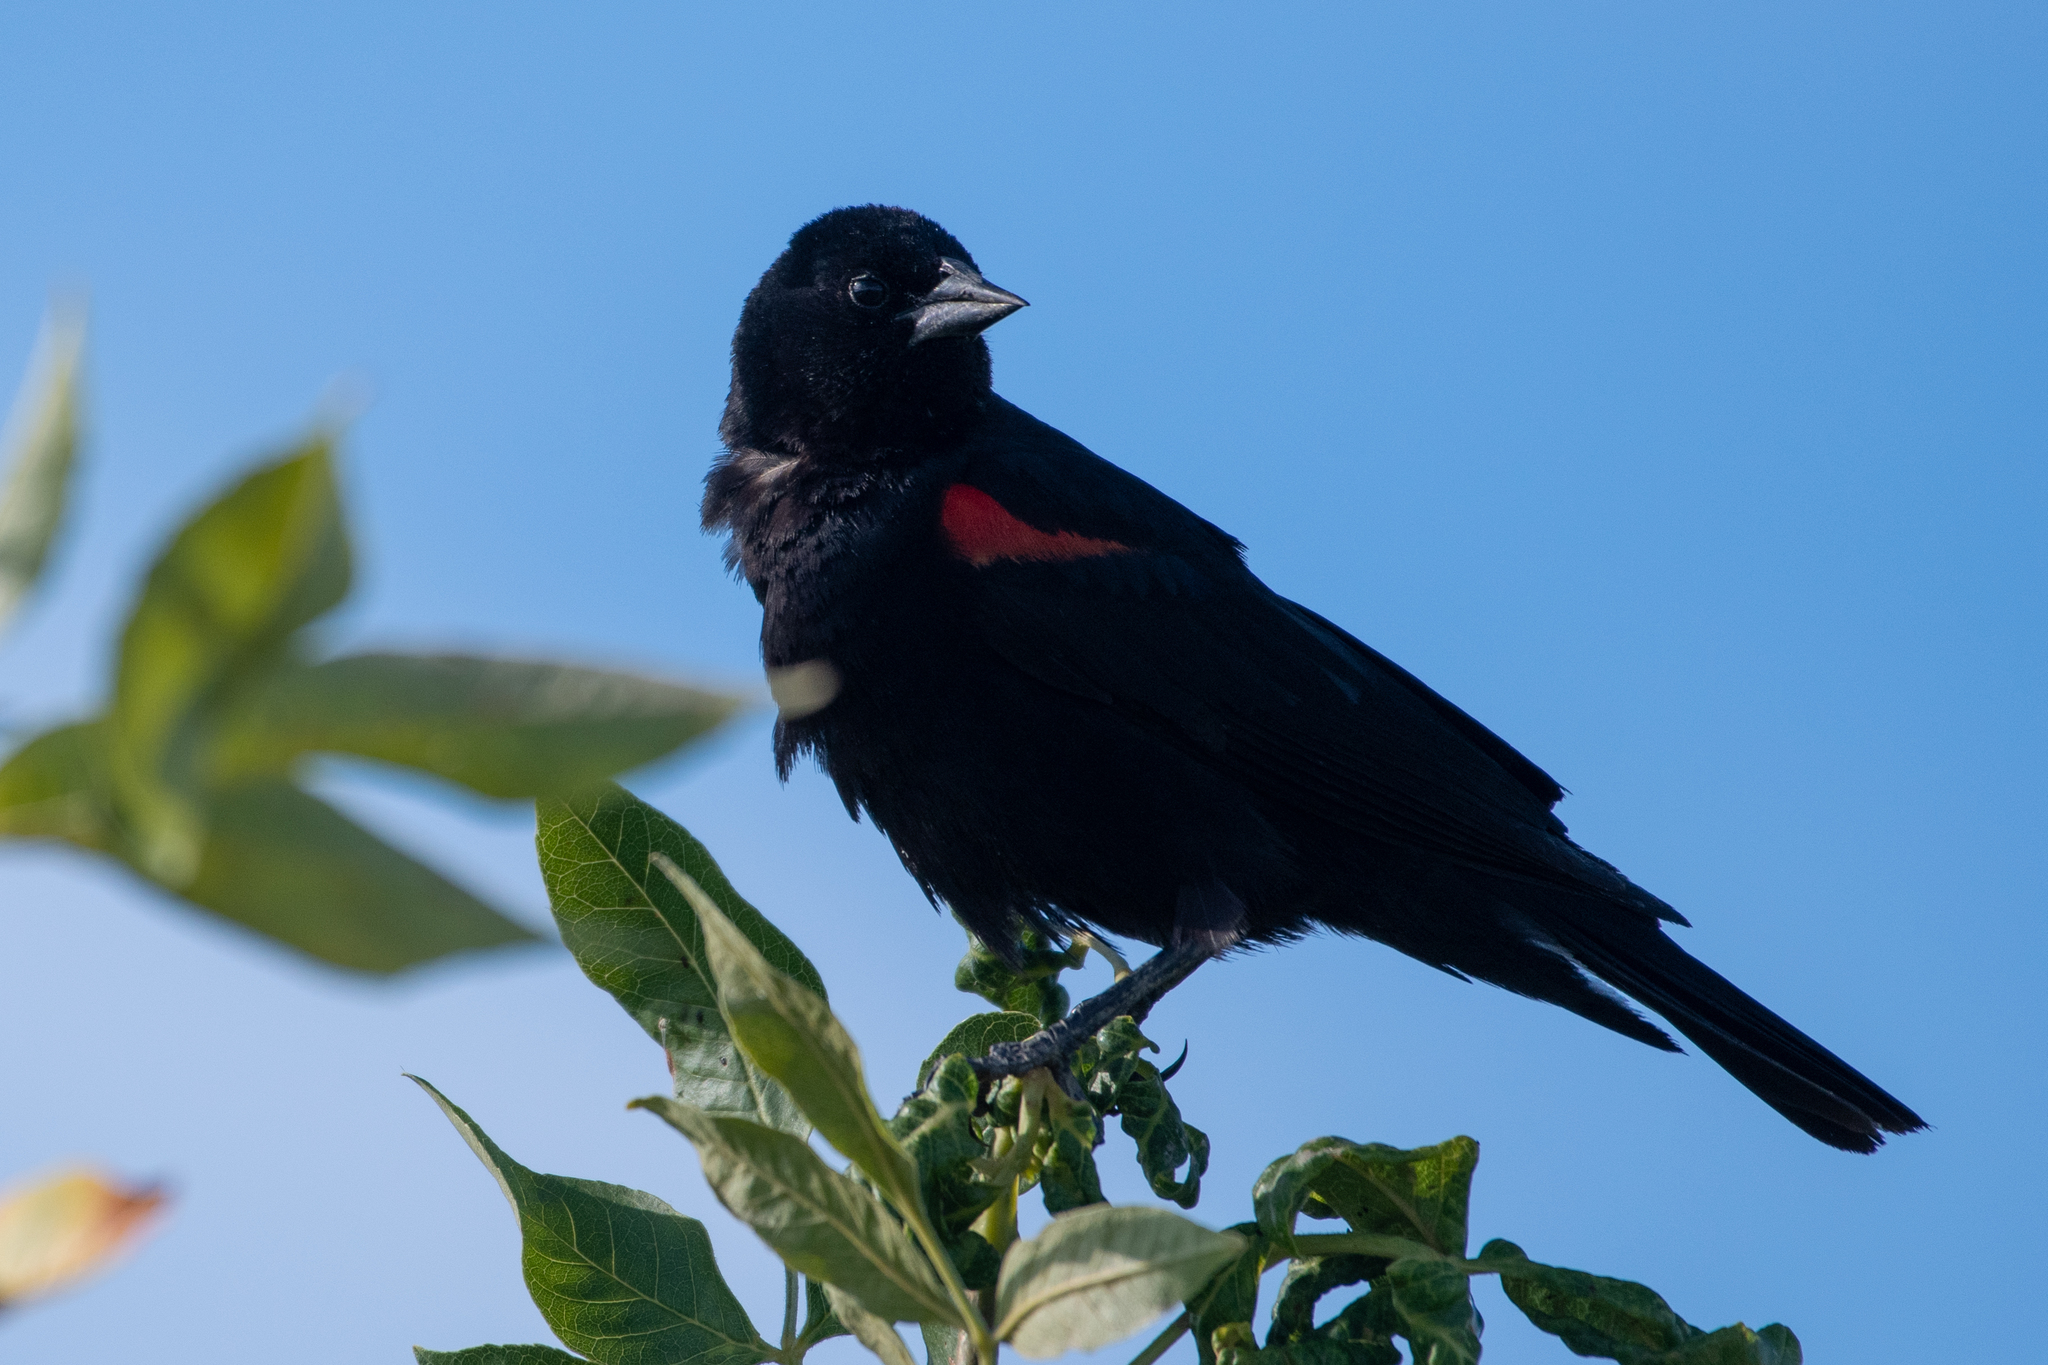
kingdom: Animalia
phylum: Chordata
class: Aves
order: Passeriformes
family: Icteridae
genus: Agelaius
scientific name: Agelaius phoeniceus
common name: Red-winged blackbird
